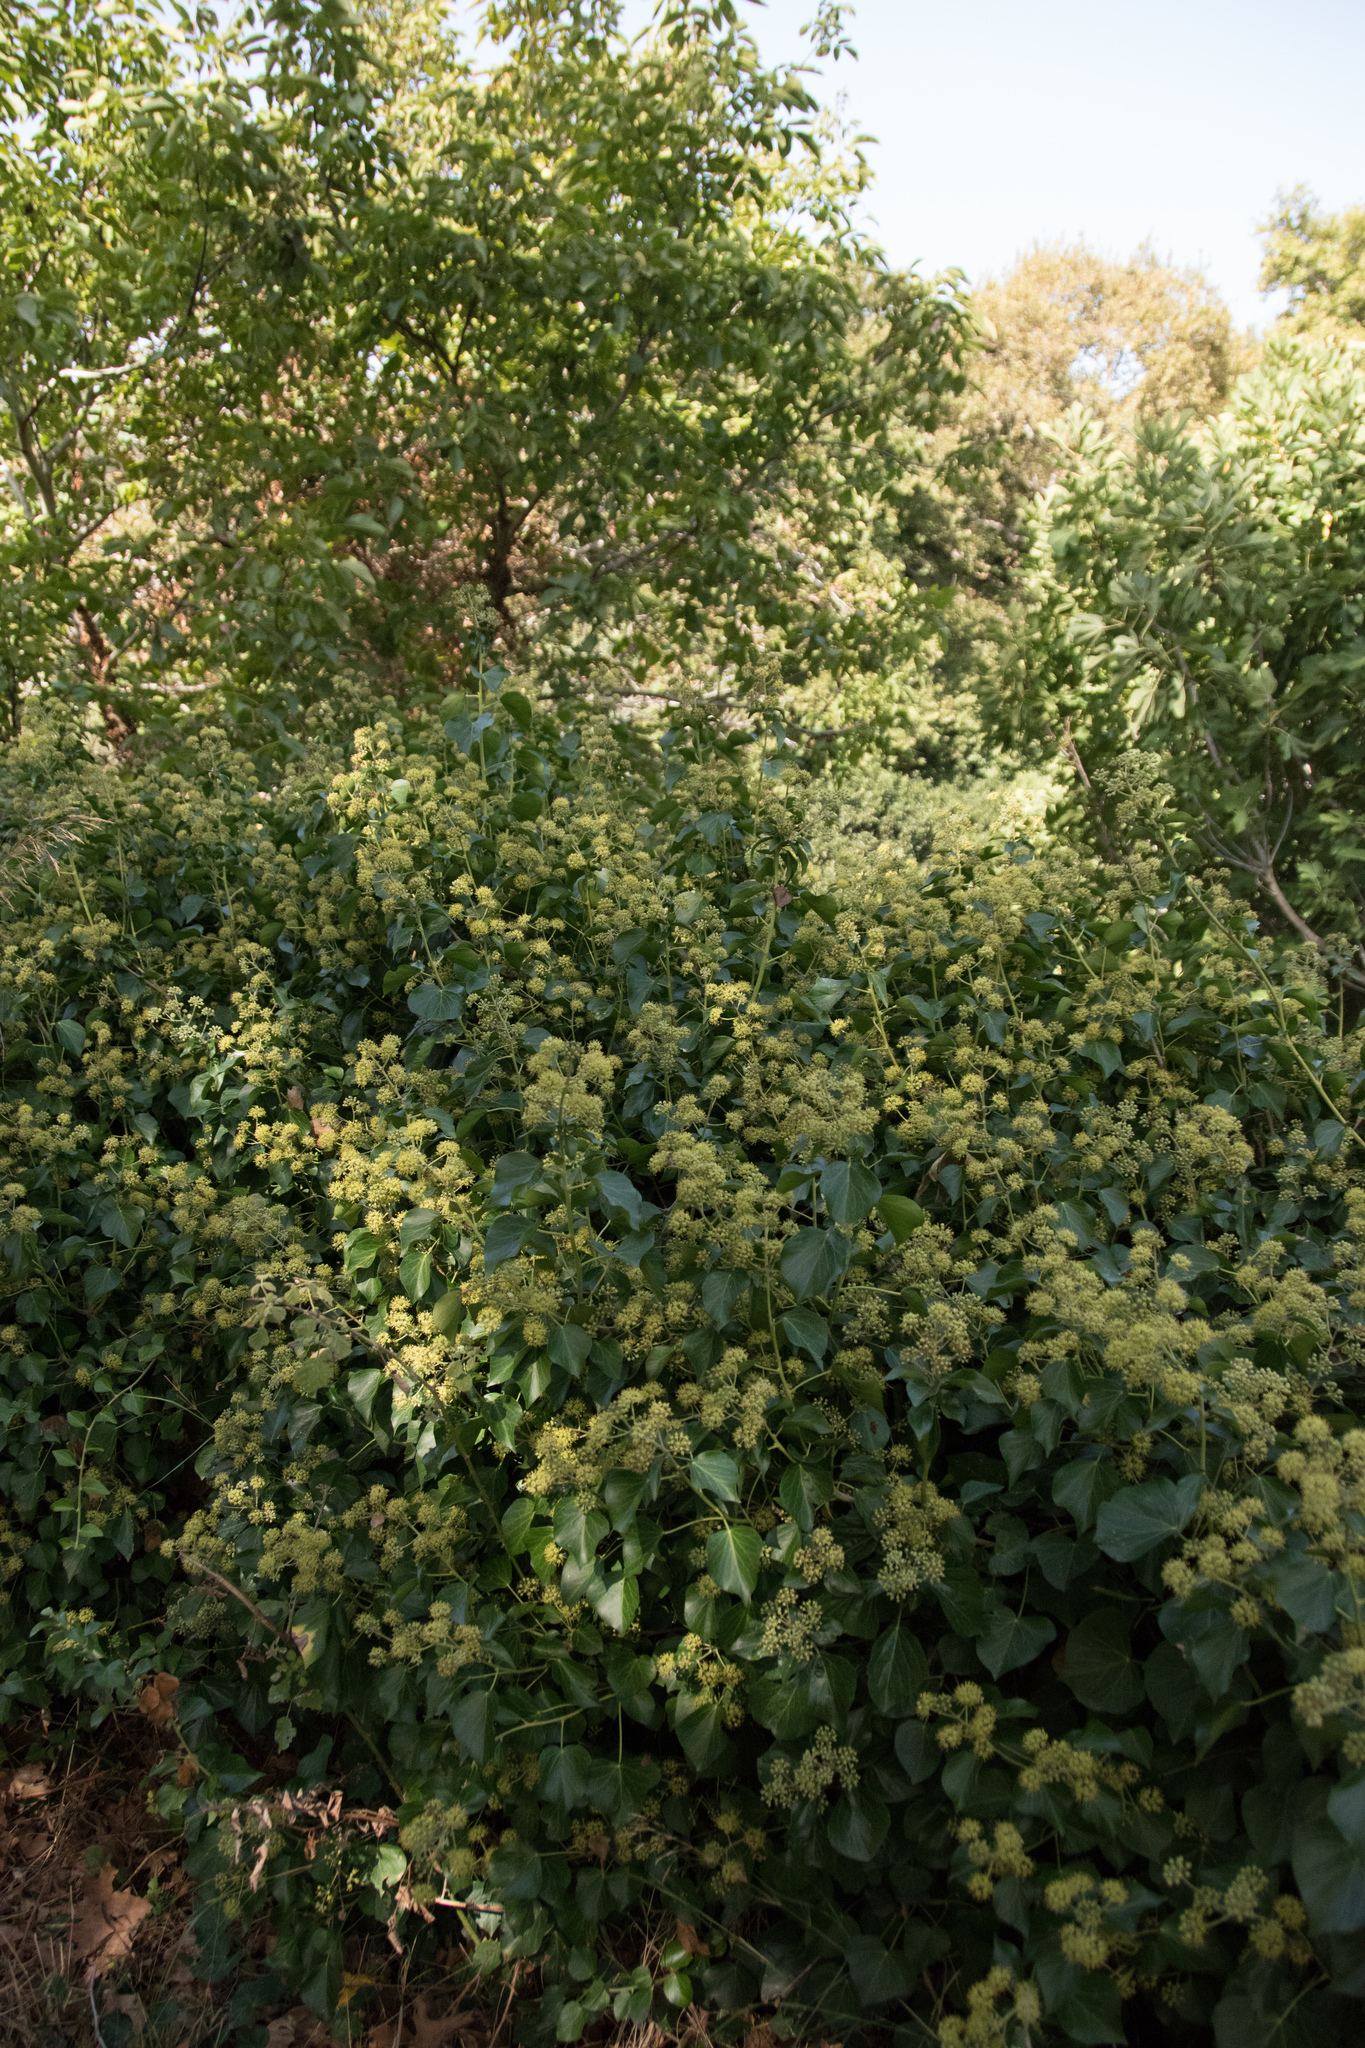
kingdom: Plantae
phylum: Tracheophyta
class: Magnoliopsida
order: Apiales
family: Araliaceae
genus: Hedera
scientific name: Hedera helix
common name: Ivy
